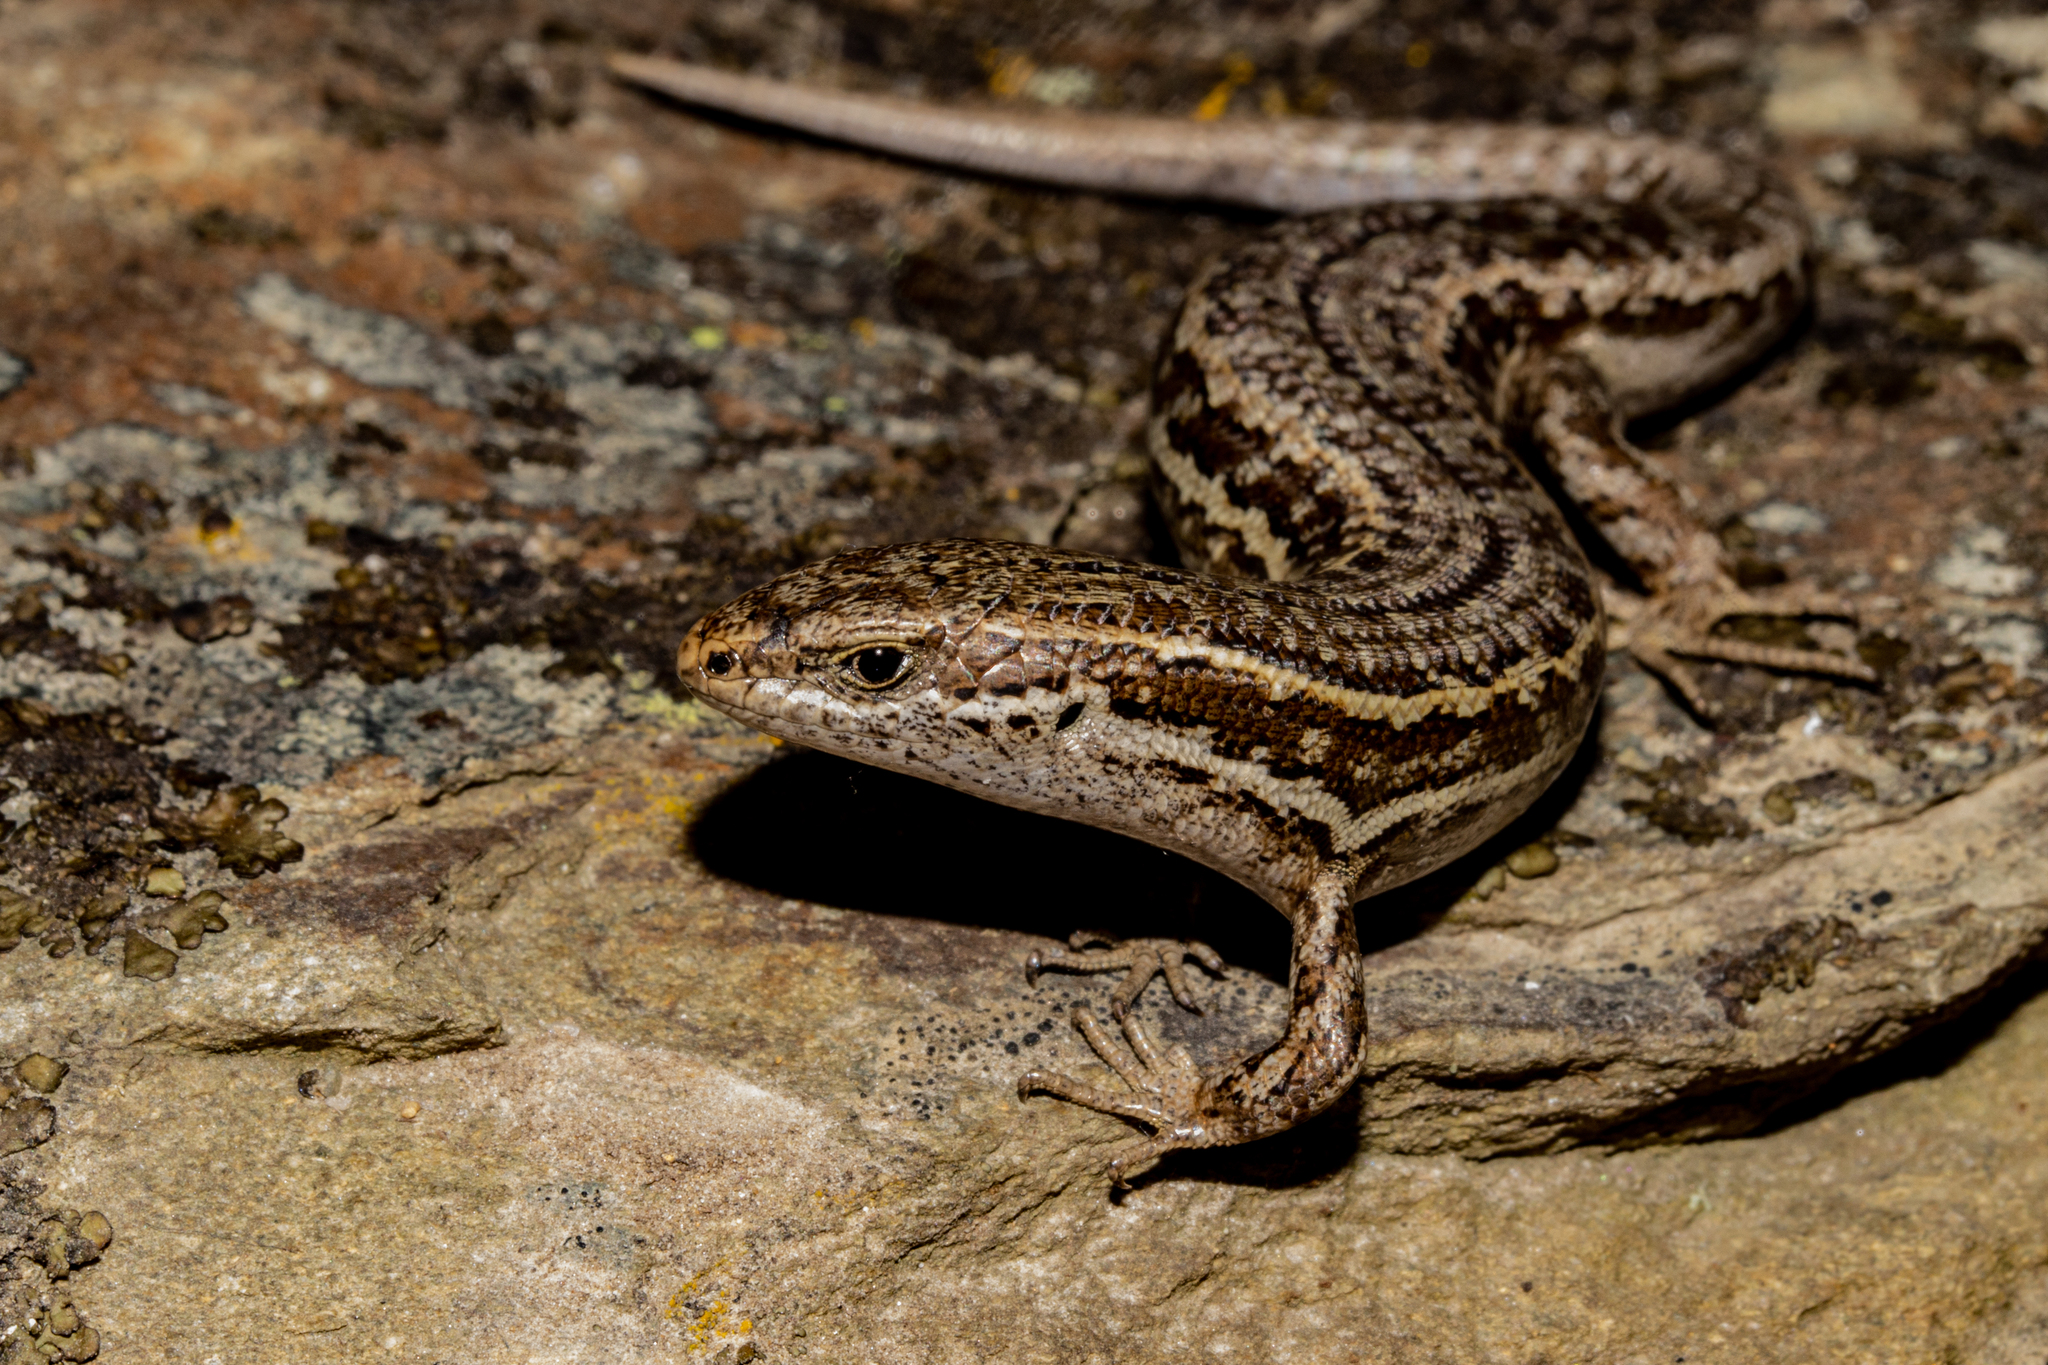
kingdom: Animalia
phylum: Chordata
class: Squamata
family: Scincidae
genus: Oligosoma
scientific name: Oligosoma maccanni
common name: Mccann’s skink
